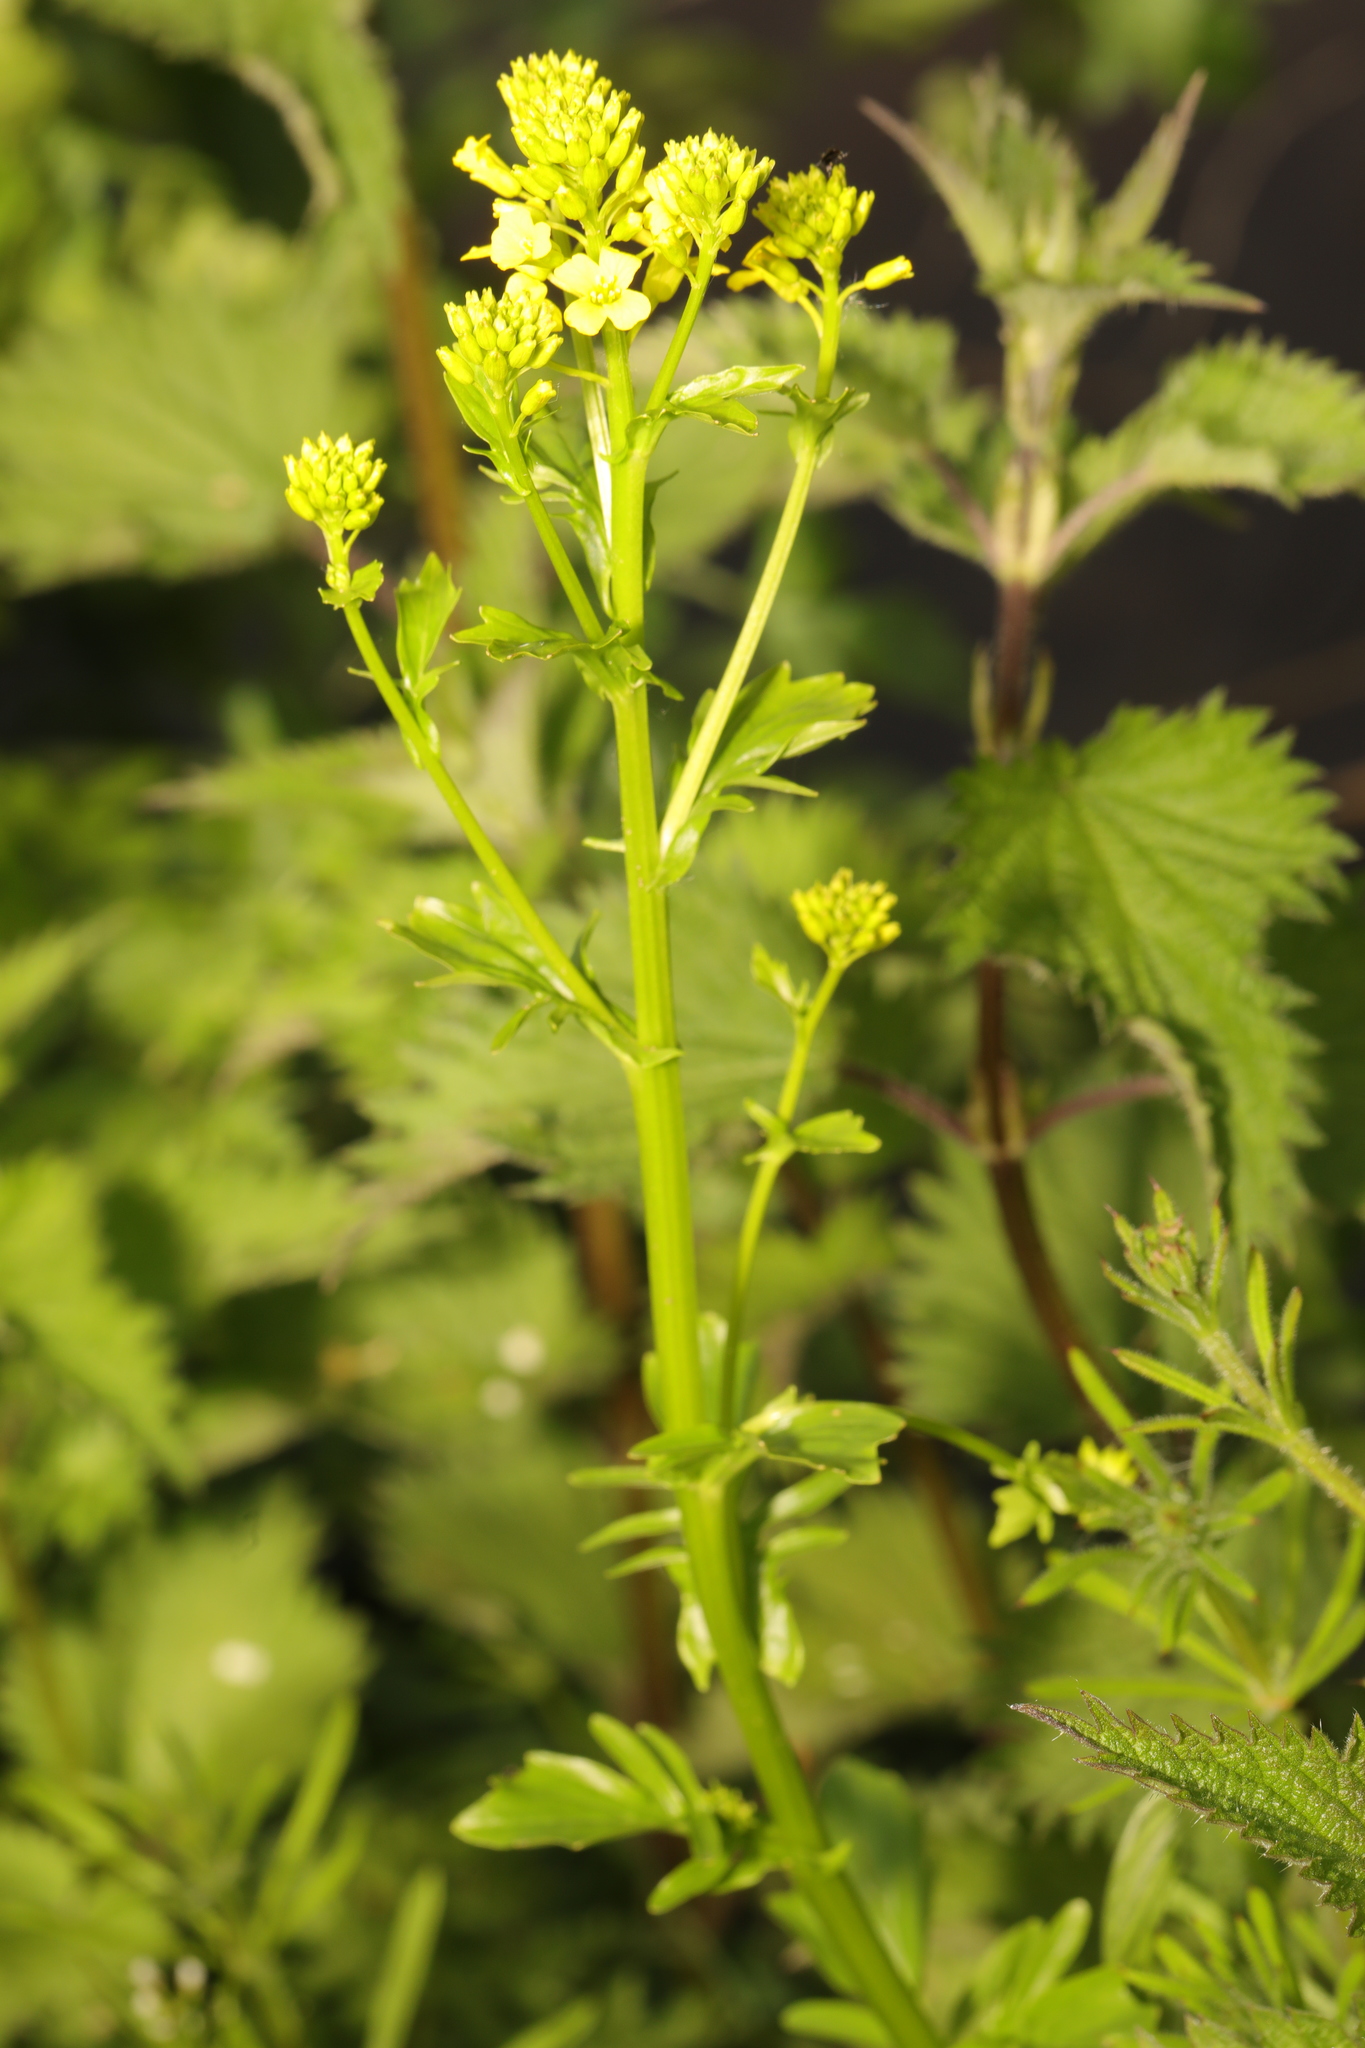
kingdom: Plantae
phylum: Tracheophyta
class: Magnoliopsida
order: Brassicales
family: Brassicaceae
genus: Barbarea
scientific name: Barbarea vulgaris
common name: Cressy-greens
